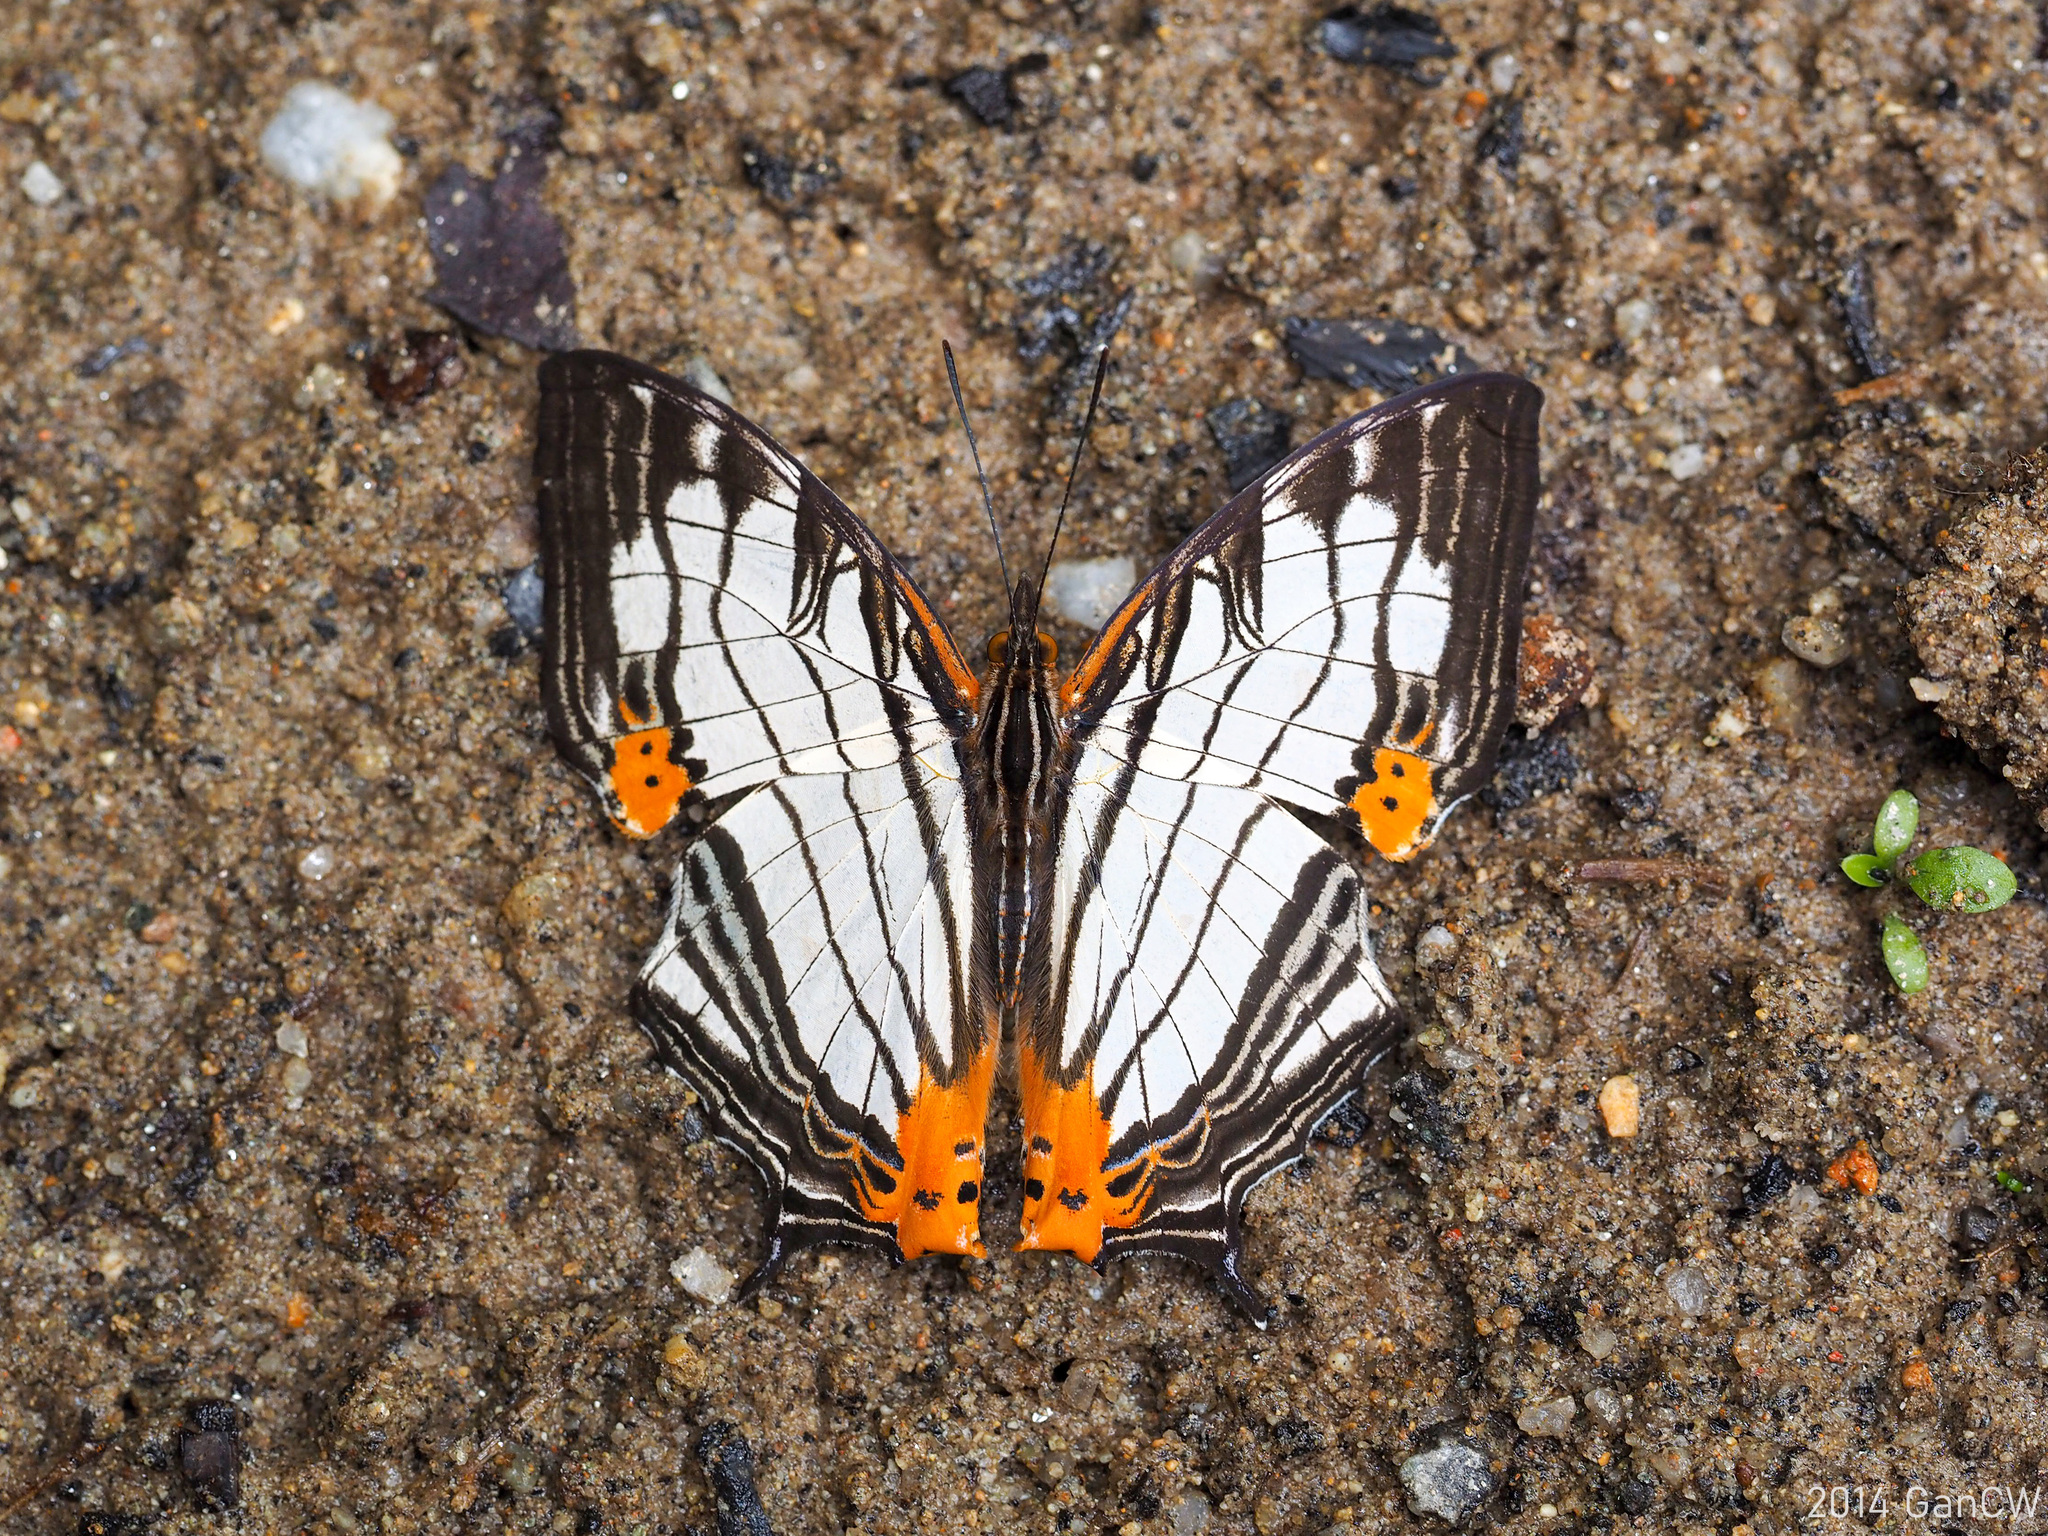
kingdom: Animalia
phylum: Arthropoda
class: Insecta
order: Lepidoptera
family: Nymphalidae
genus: Cyrestis
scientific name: Cyrestis maenalis
